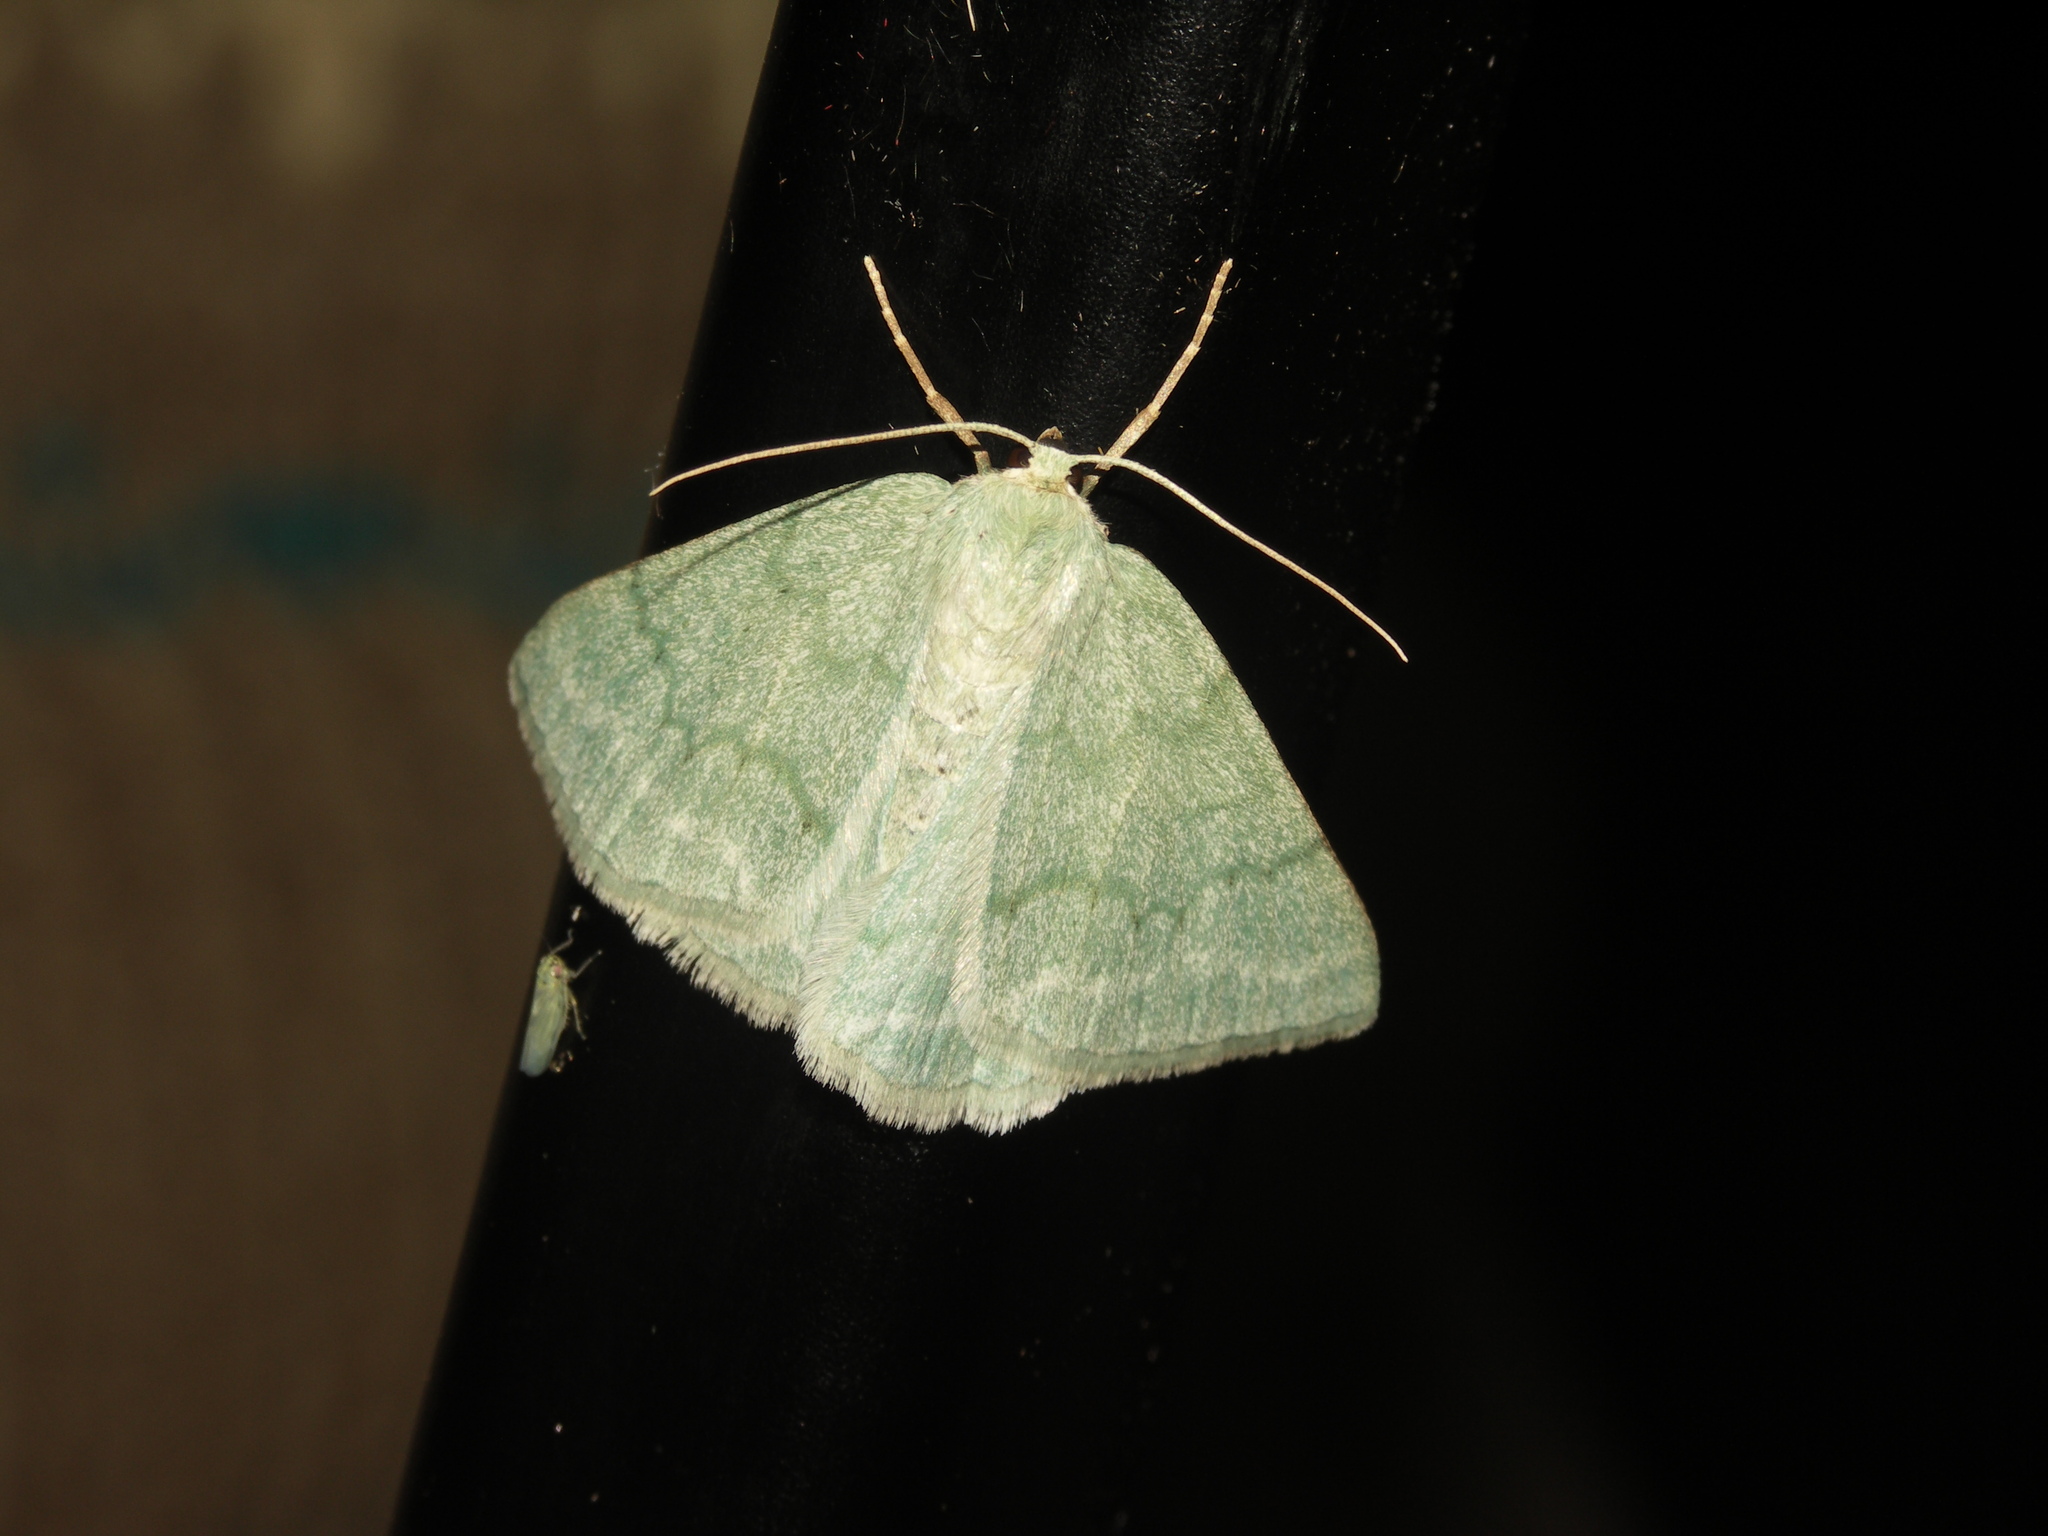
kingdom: Animalia
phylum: Arthropoda
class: Insecta
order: Lepidoptera
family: Geometridae
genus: Pseudoterpna
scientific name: Pseudoterpna pruinata
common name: Grass emerald
